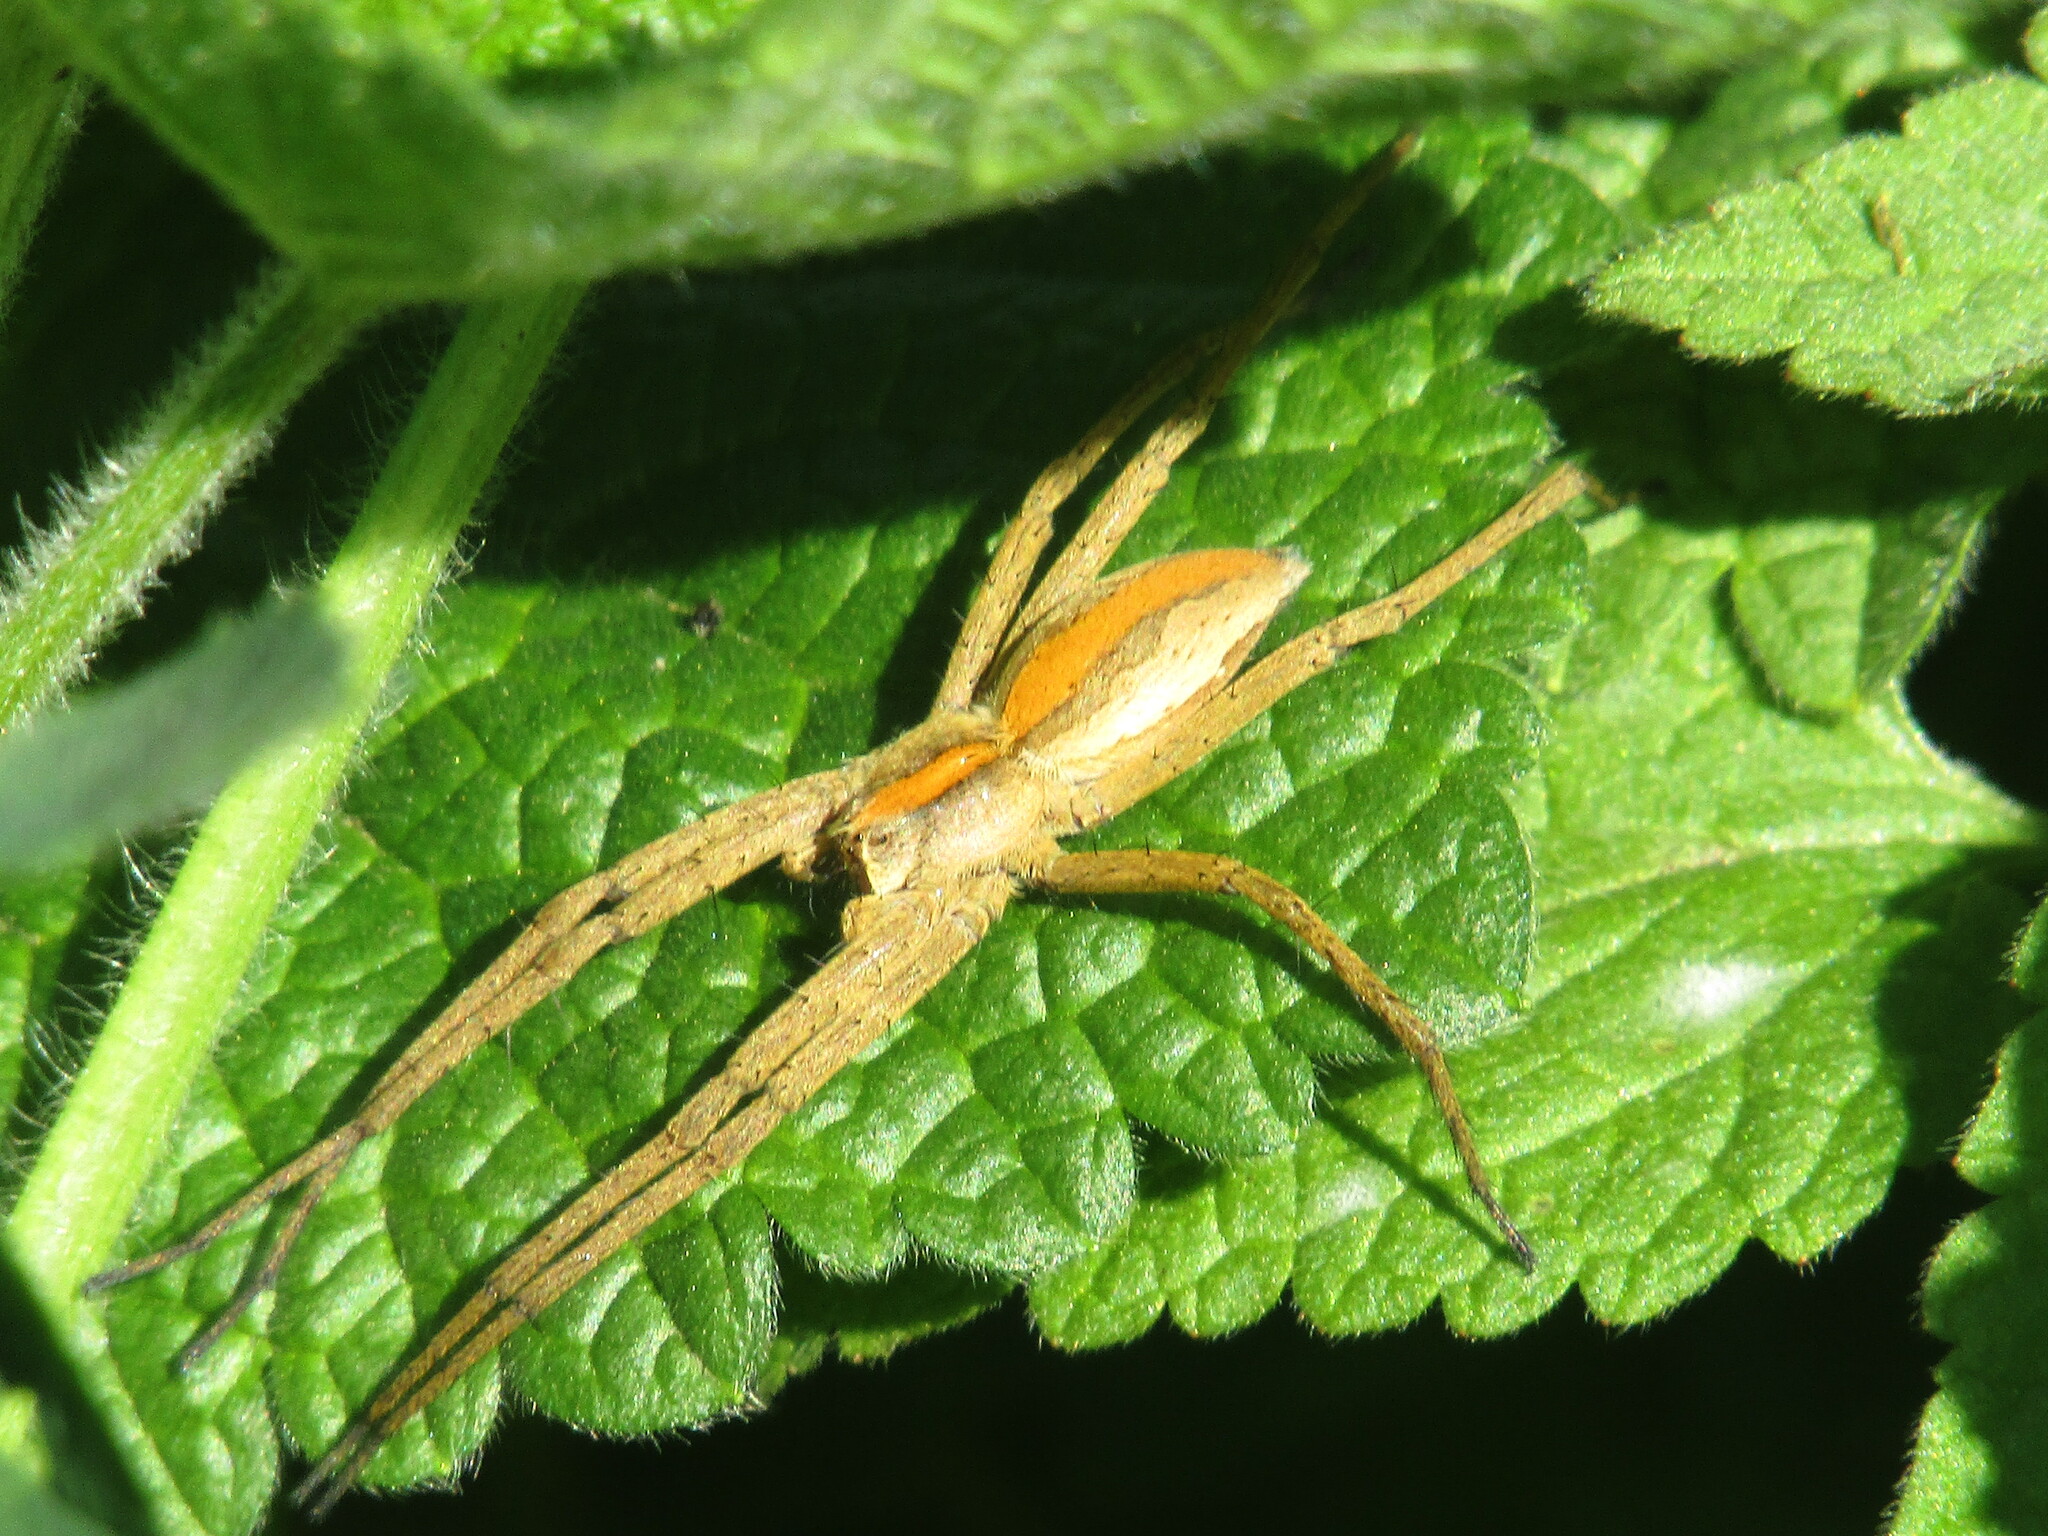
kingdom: Animalia
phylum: Arthropoda
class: Arachnida
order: Araneae
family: Pisauridae
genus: Pisaura
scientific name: Pisaura
